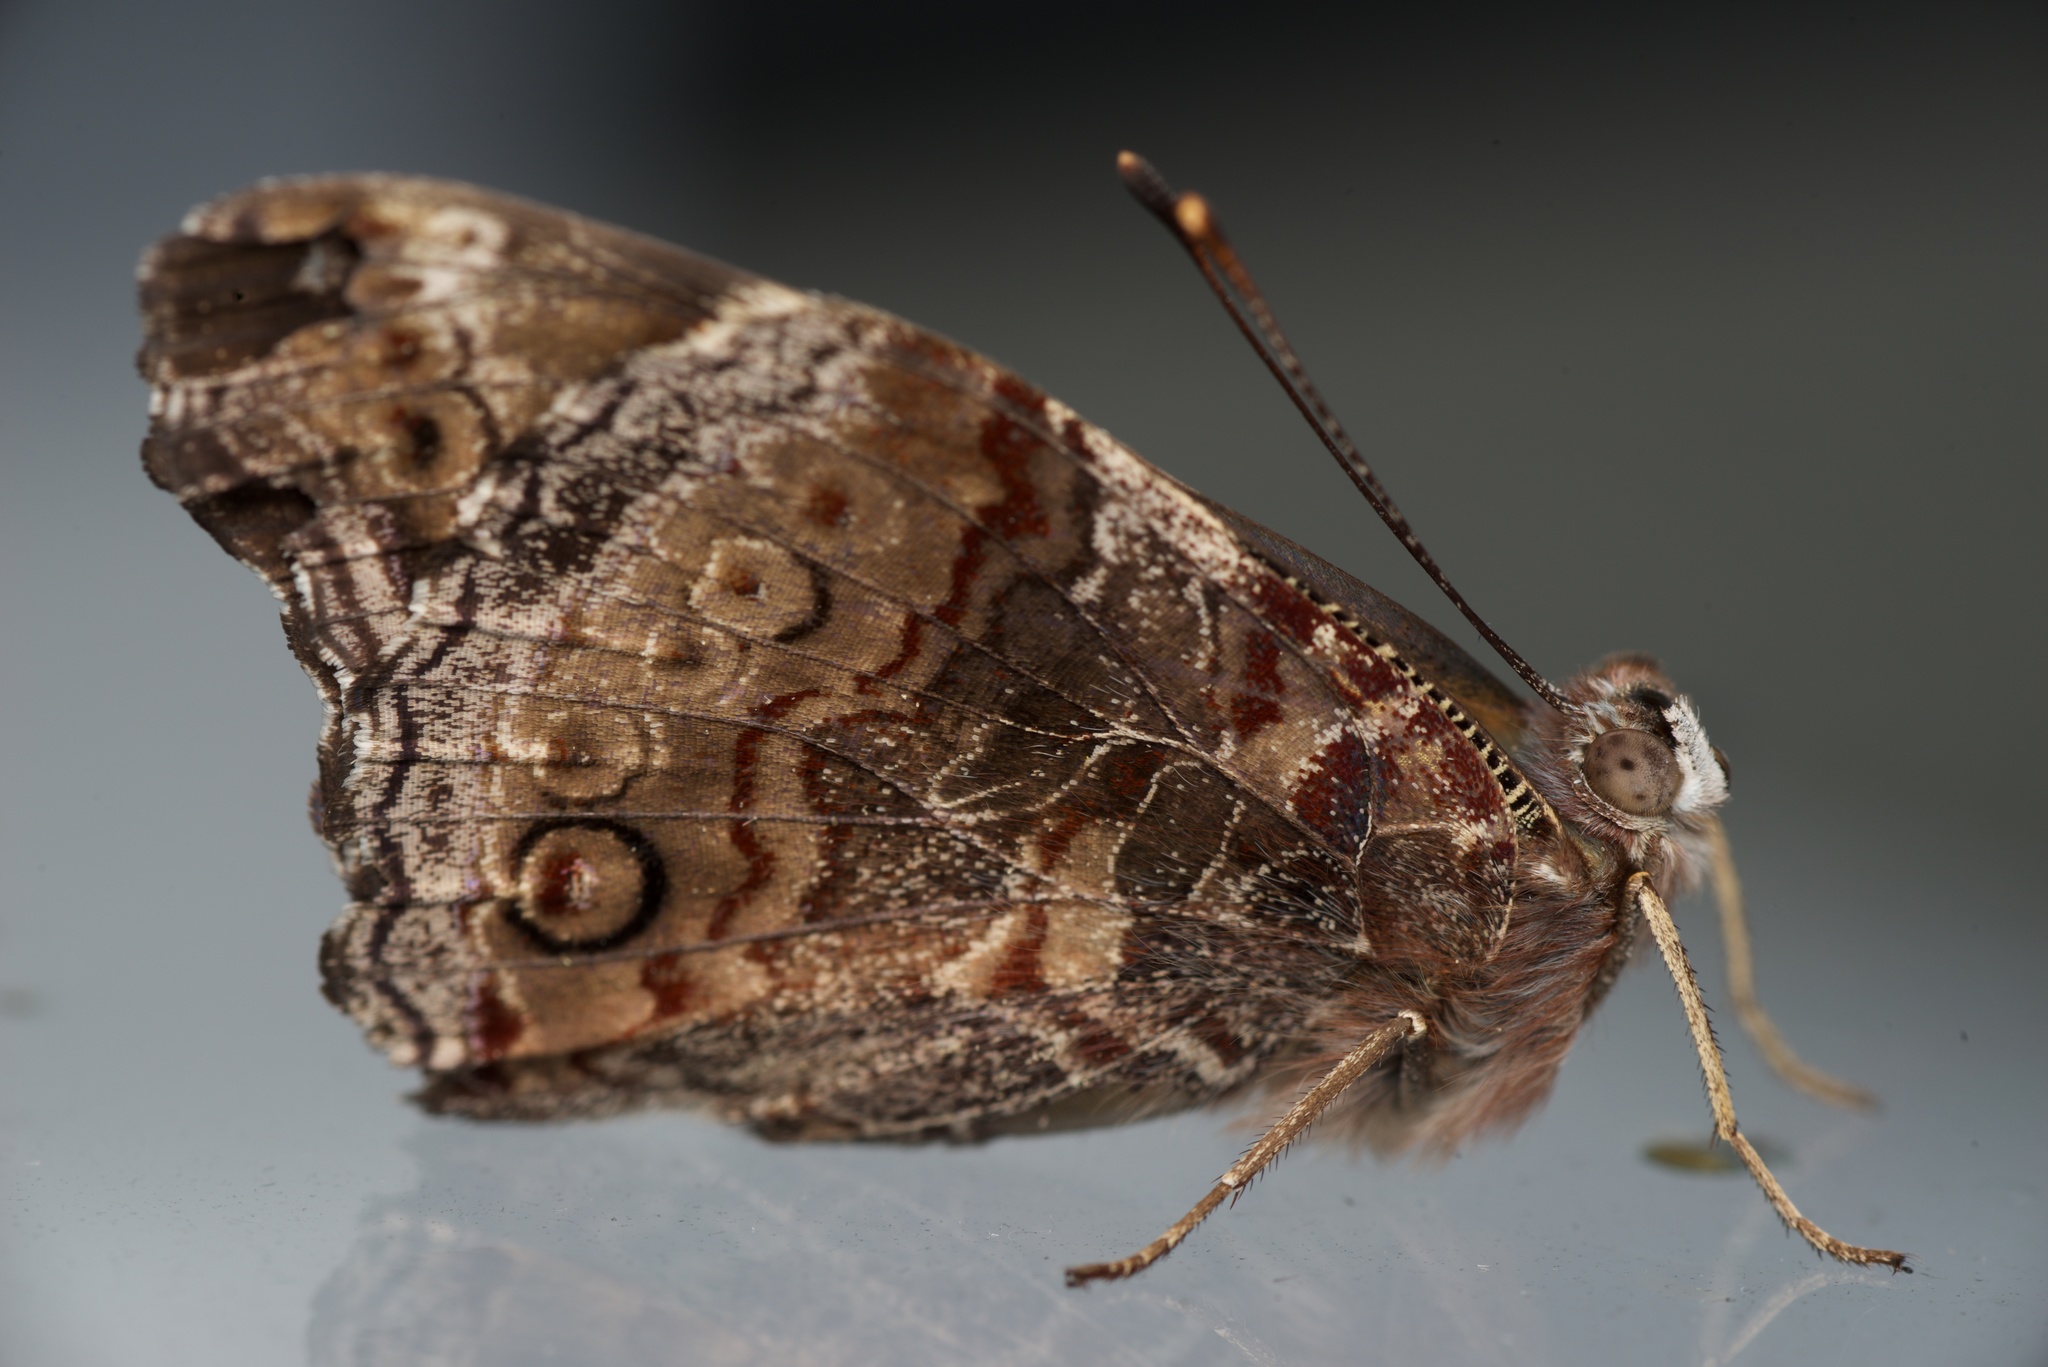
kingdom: Animalia
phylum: Arthropoda
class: Insecta
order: Lepidoptera
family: Nymphalidae
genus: Vanessa
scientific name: Vanessa itea
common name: Yellow admiral
